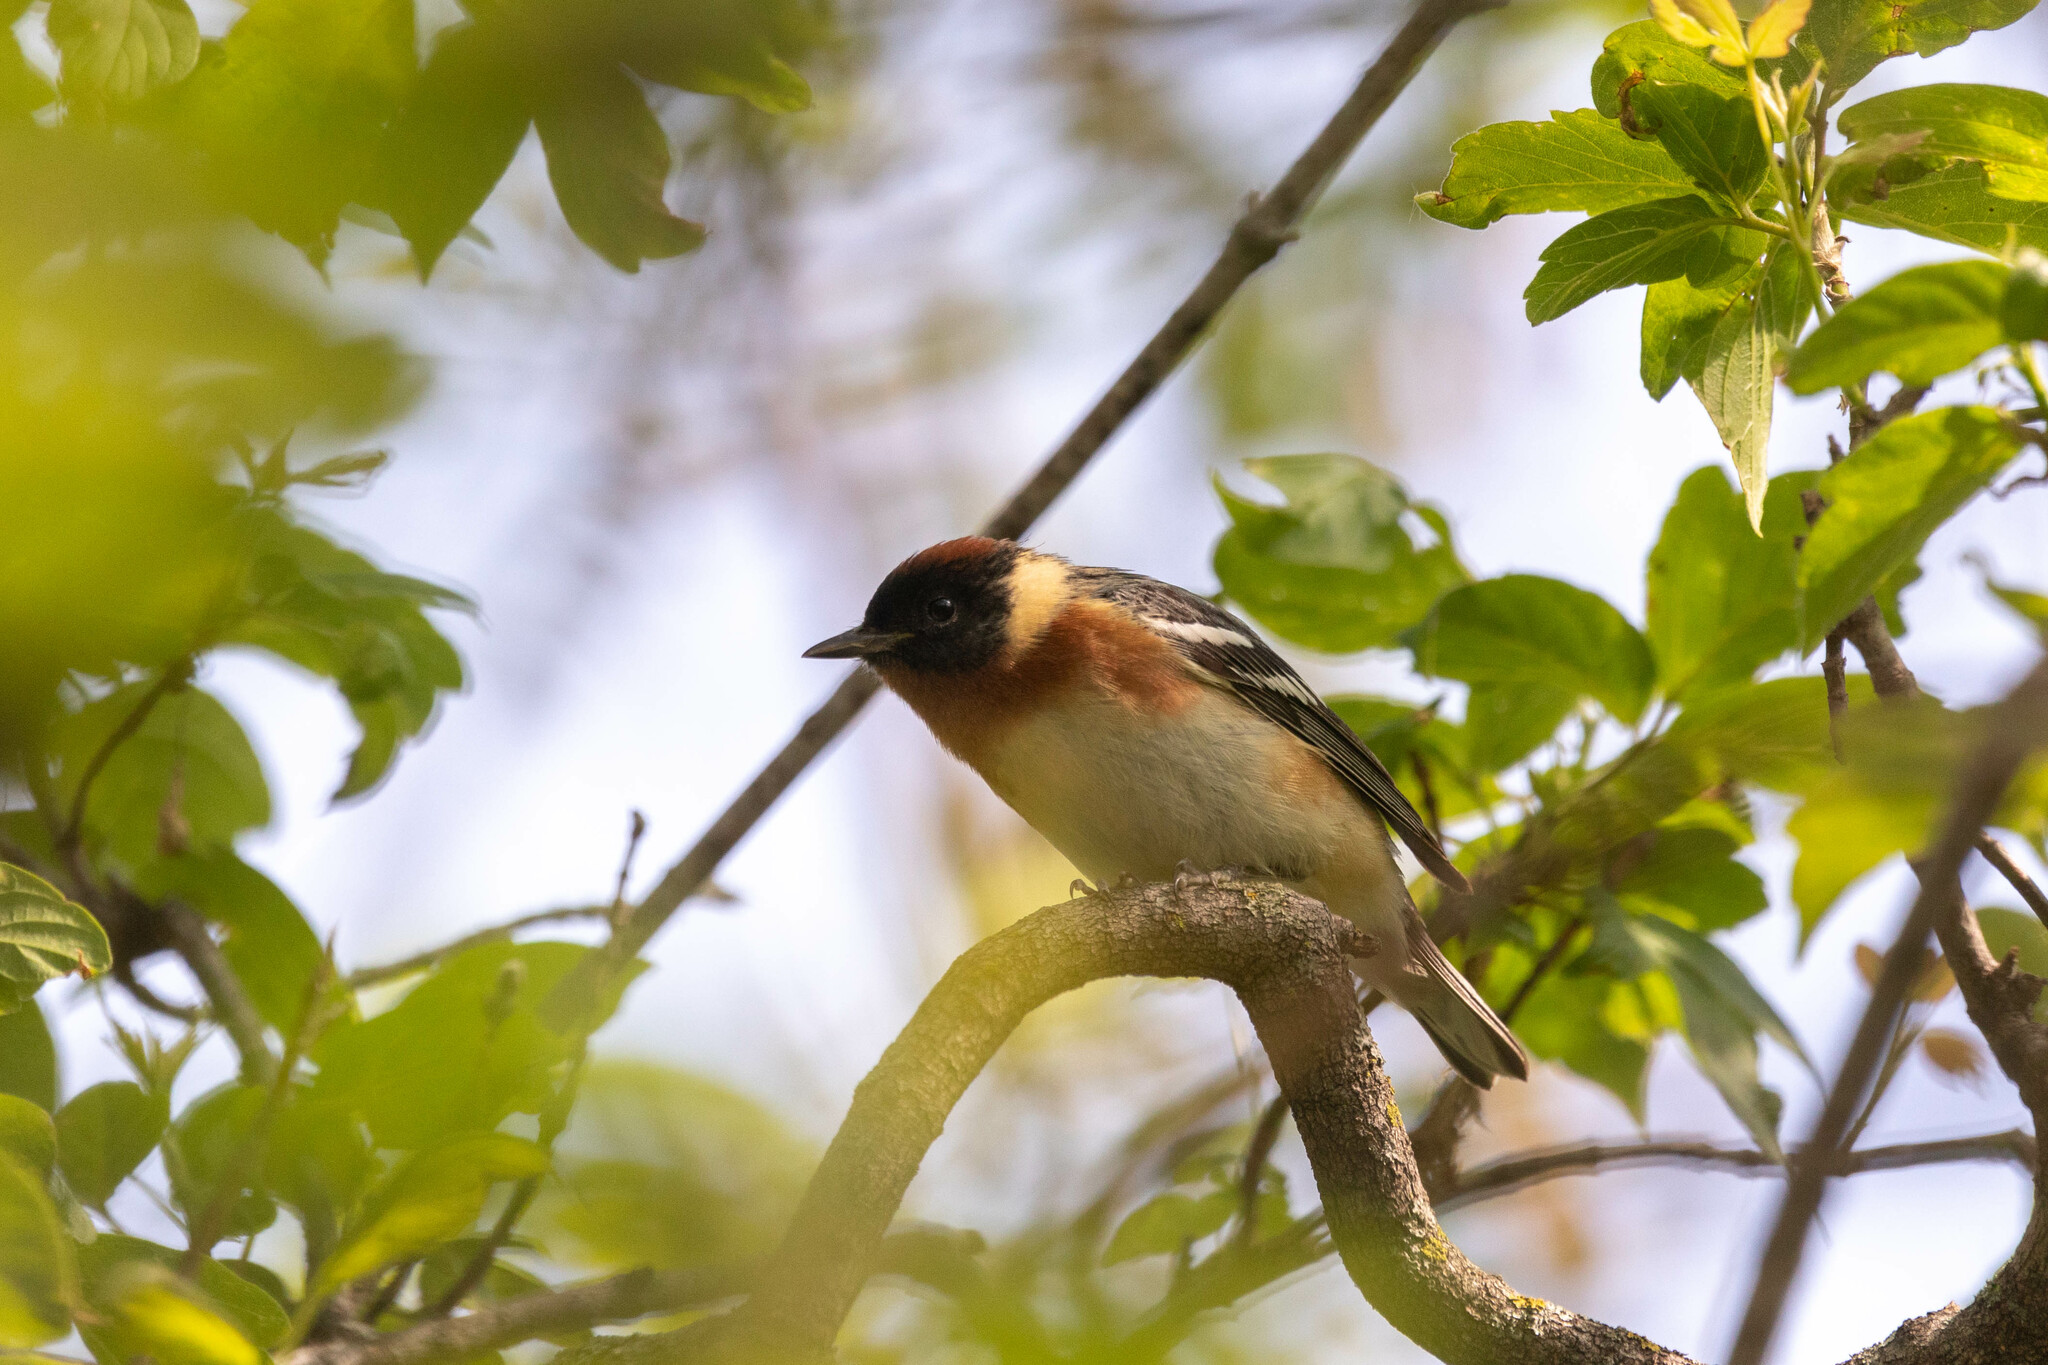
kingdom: Animalia
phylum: Chordata
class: Aves
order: Passeriformes
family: Parulidae
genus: Setophaga
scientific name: Setophaga castanea
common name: Bay-breasted warbler
